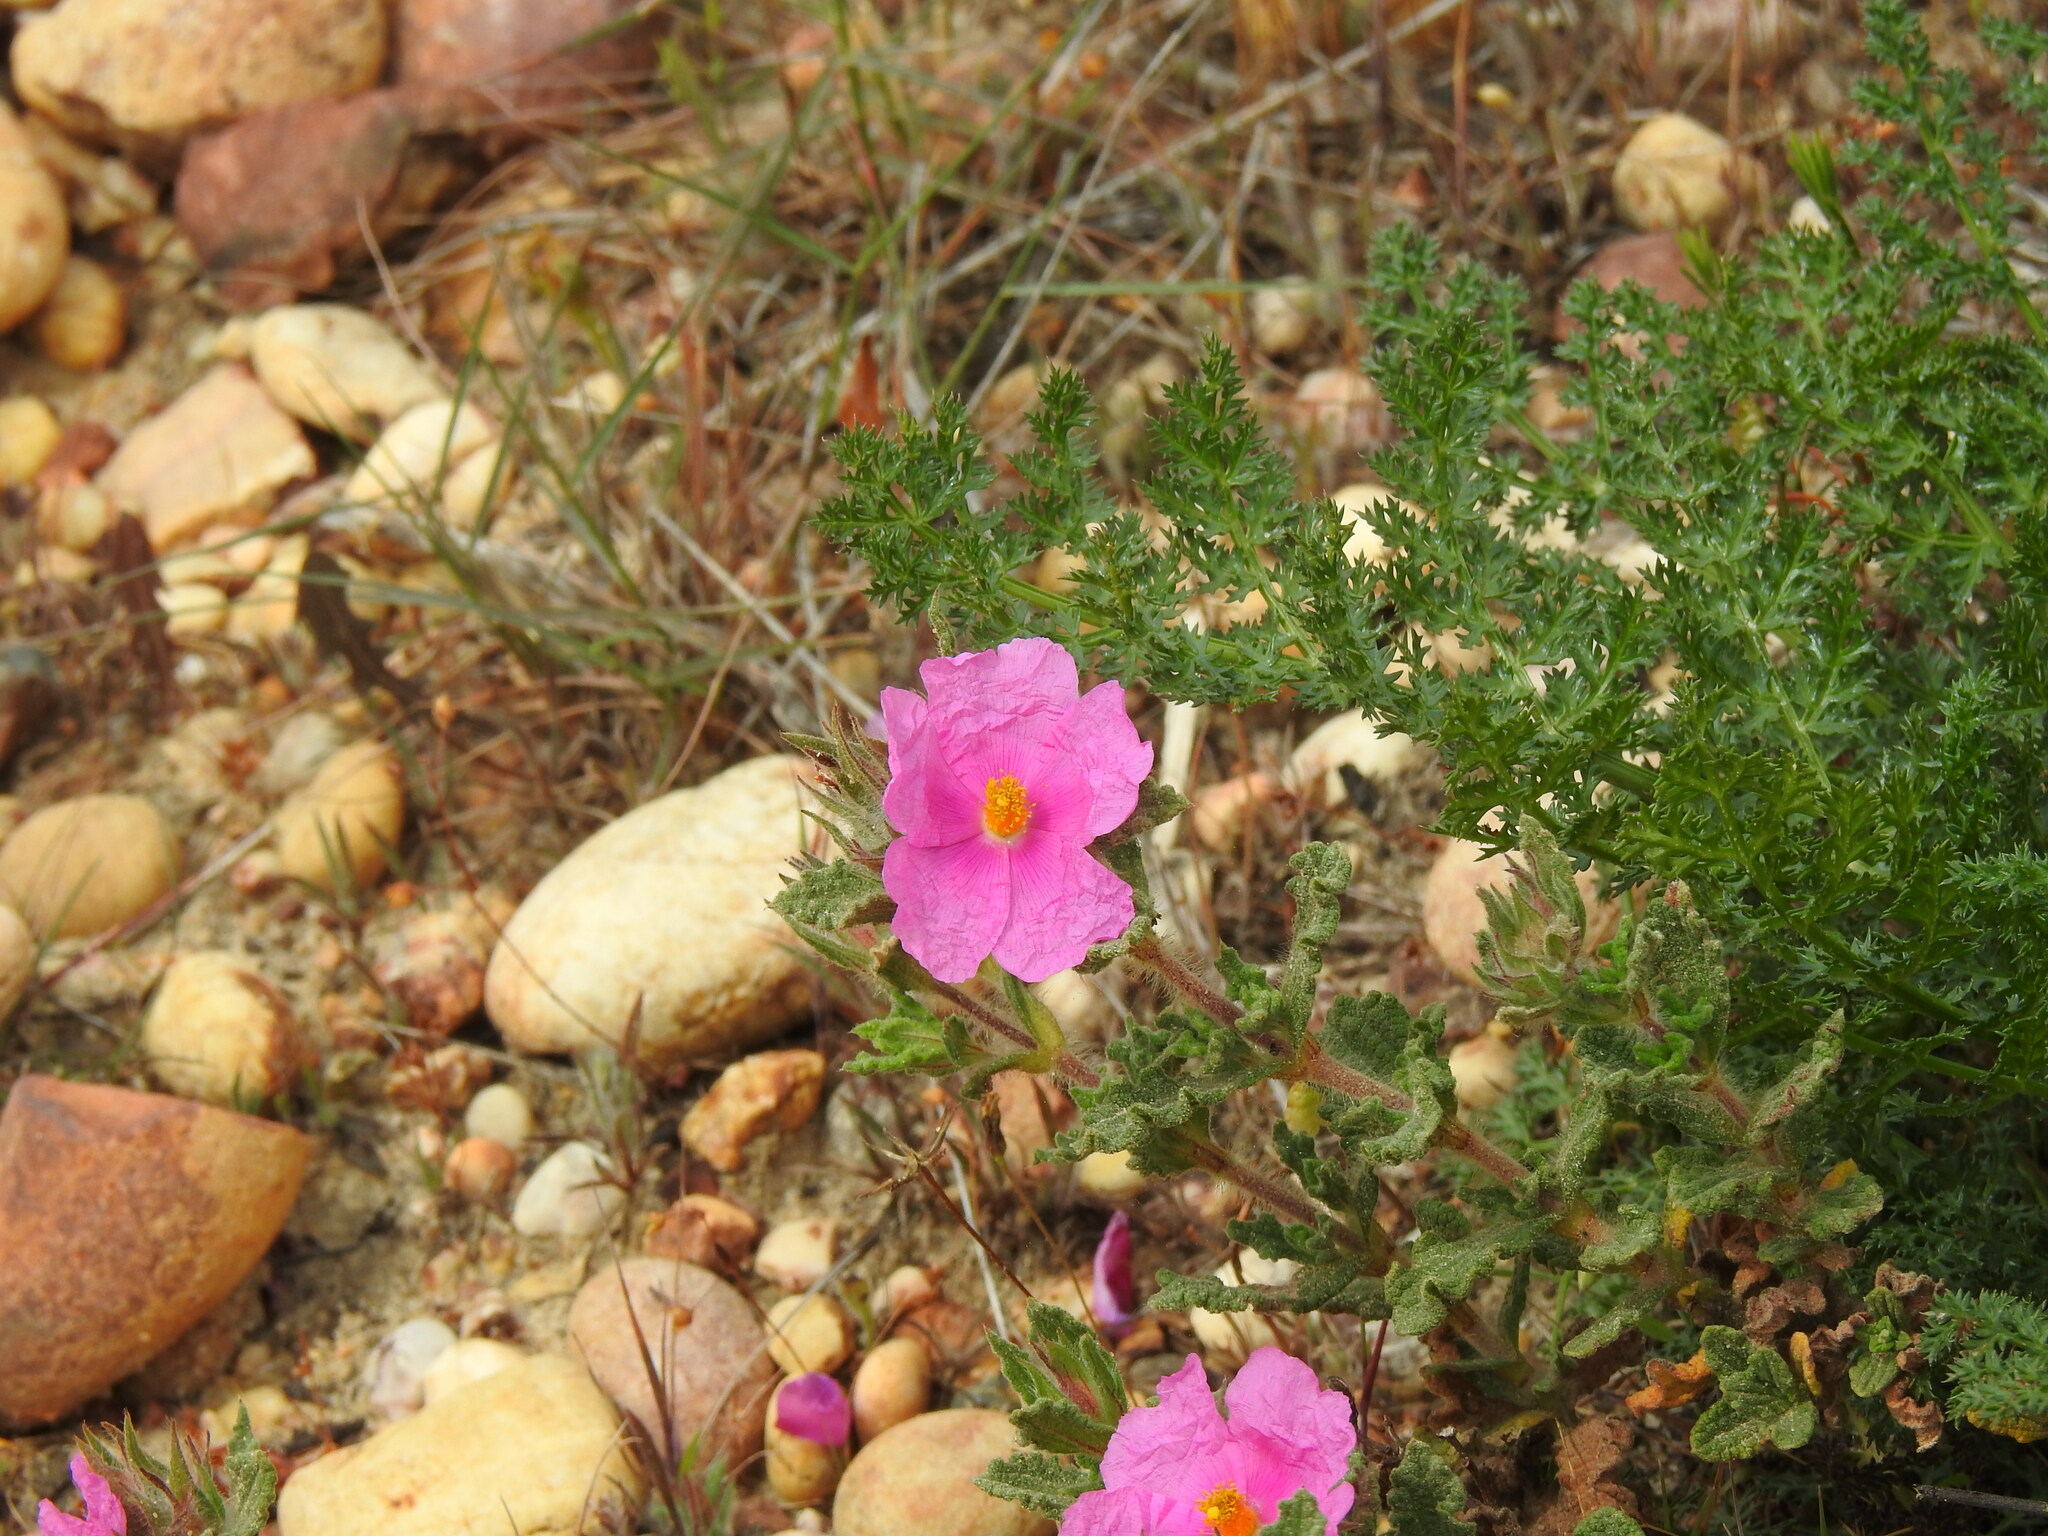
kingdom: Plantae
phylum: Tracheophyta
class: Magnoliopsida
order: Malvales
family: Cistaceae
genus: Cistus
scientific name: Cistus crispus
